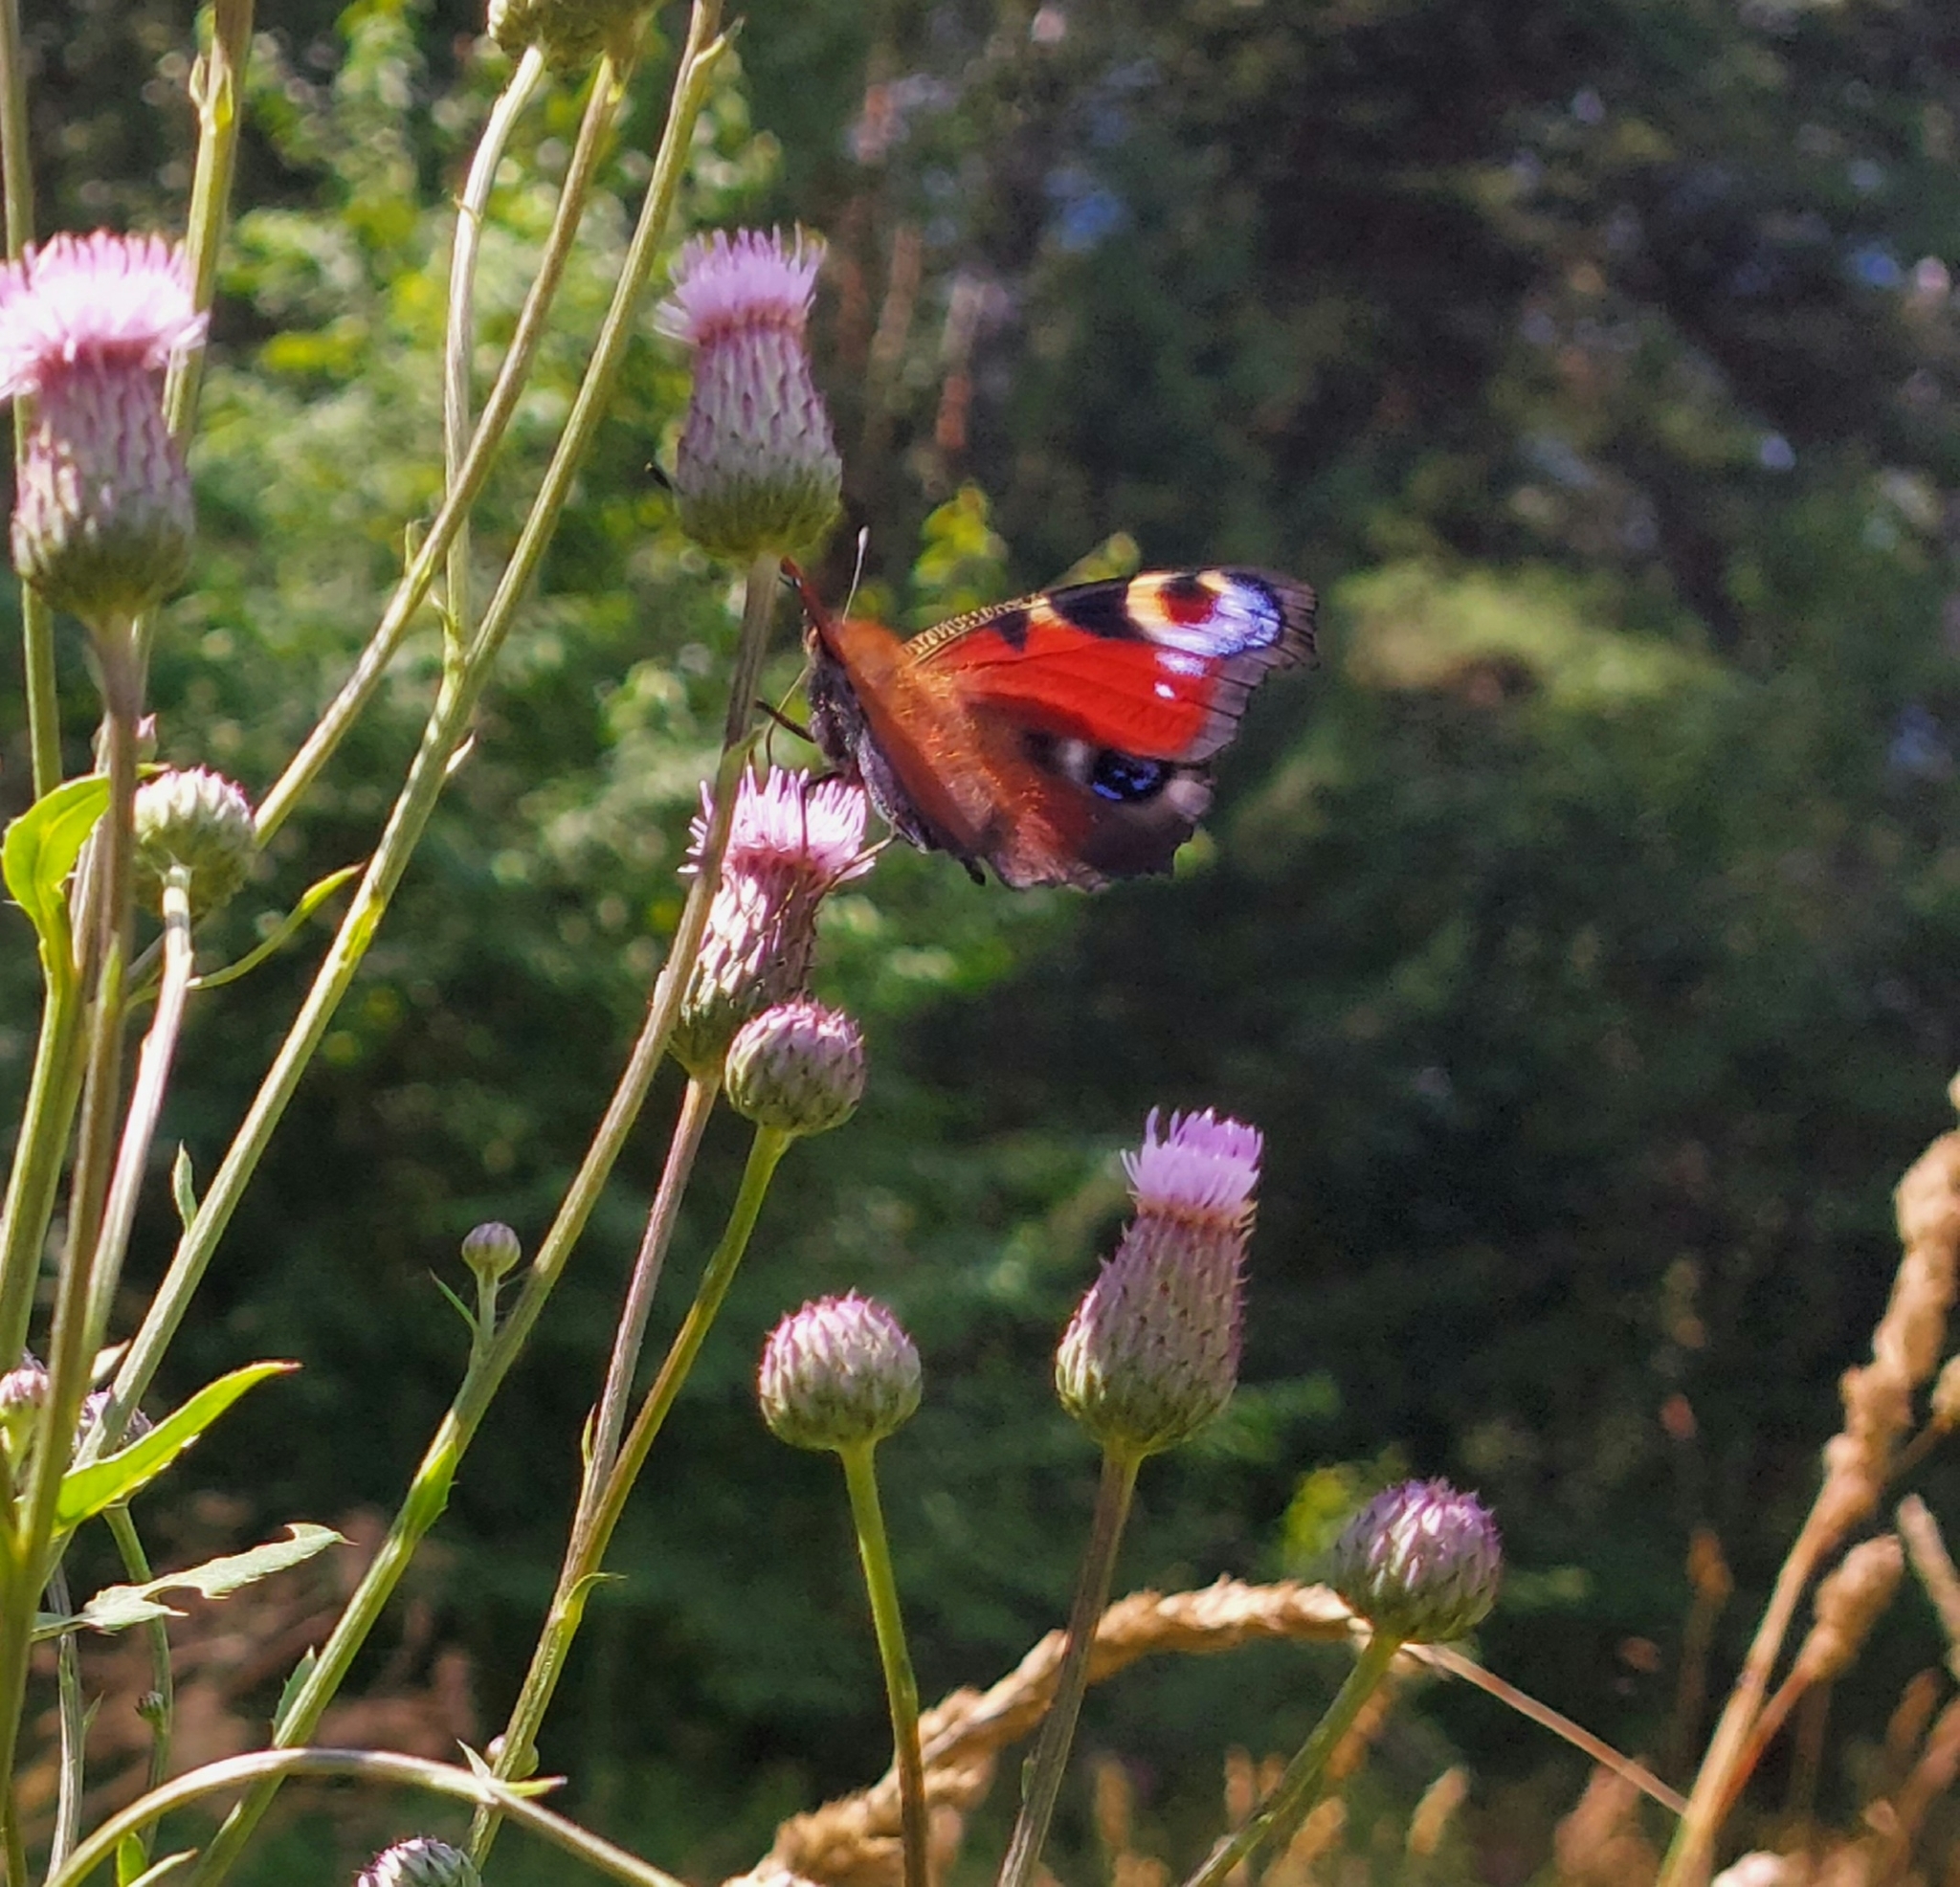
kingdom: Animalia
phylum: Arthropoda
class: Insecta
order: Lepidoptera
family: Nymphalidae
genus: Aglais
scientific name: Aglais io
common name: Peacock
